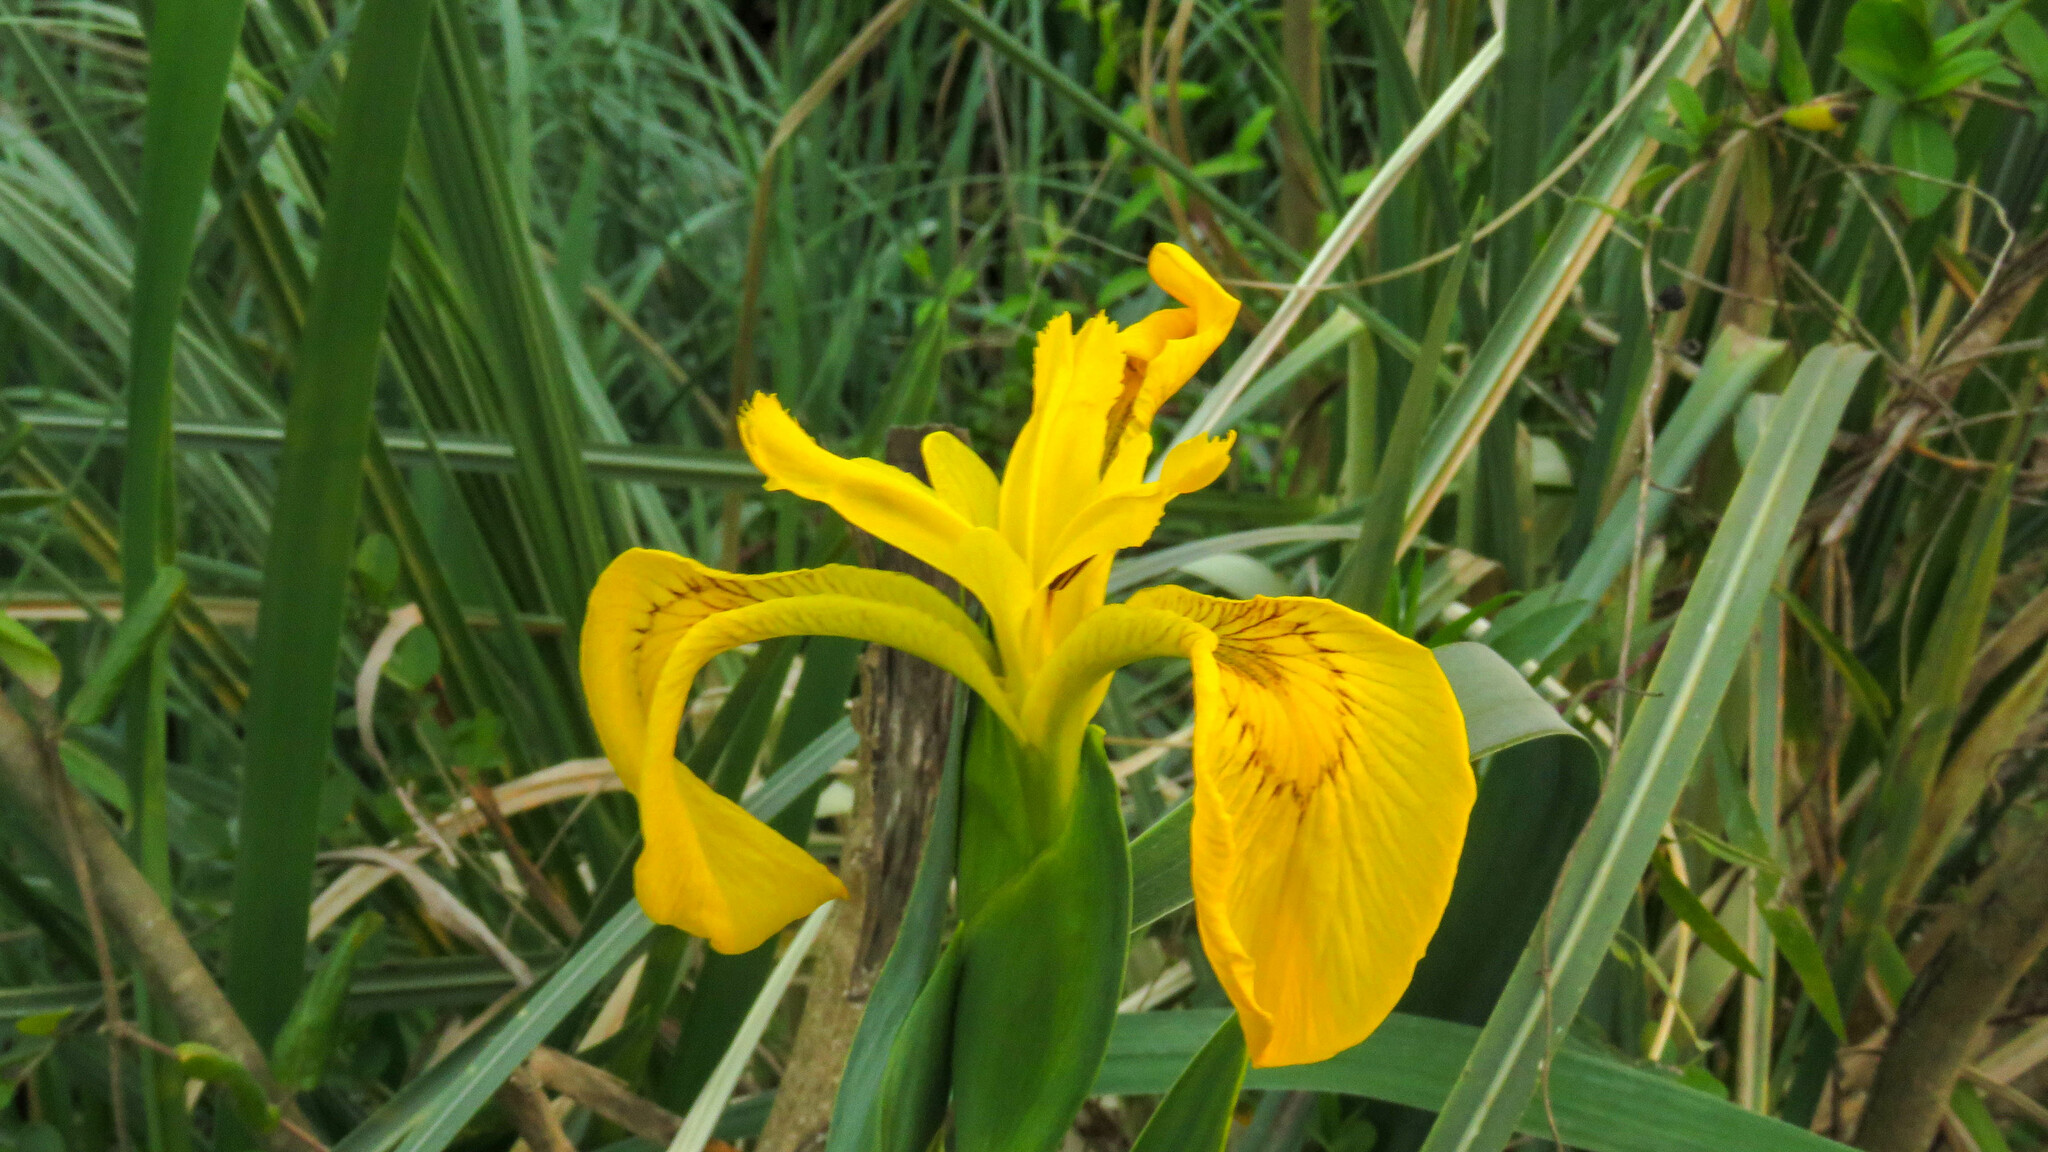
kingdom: Plantae
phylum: Tracheophyta
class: Liliopsida
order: Asparagales
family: Iridaceae
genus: Iris
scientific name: Iris pseudacorus
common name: Yellow flag
